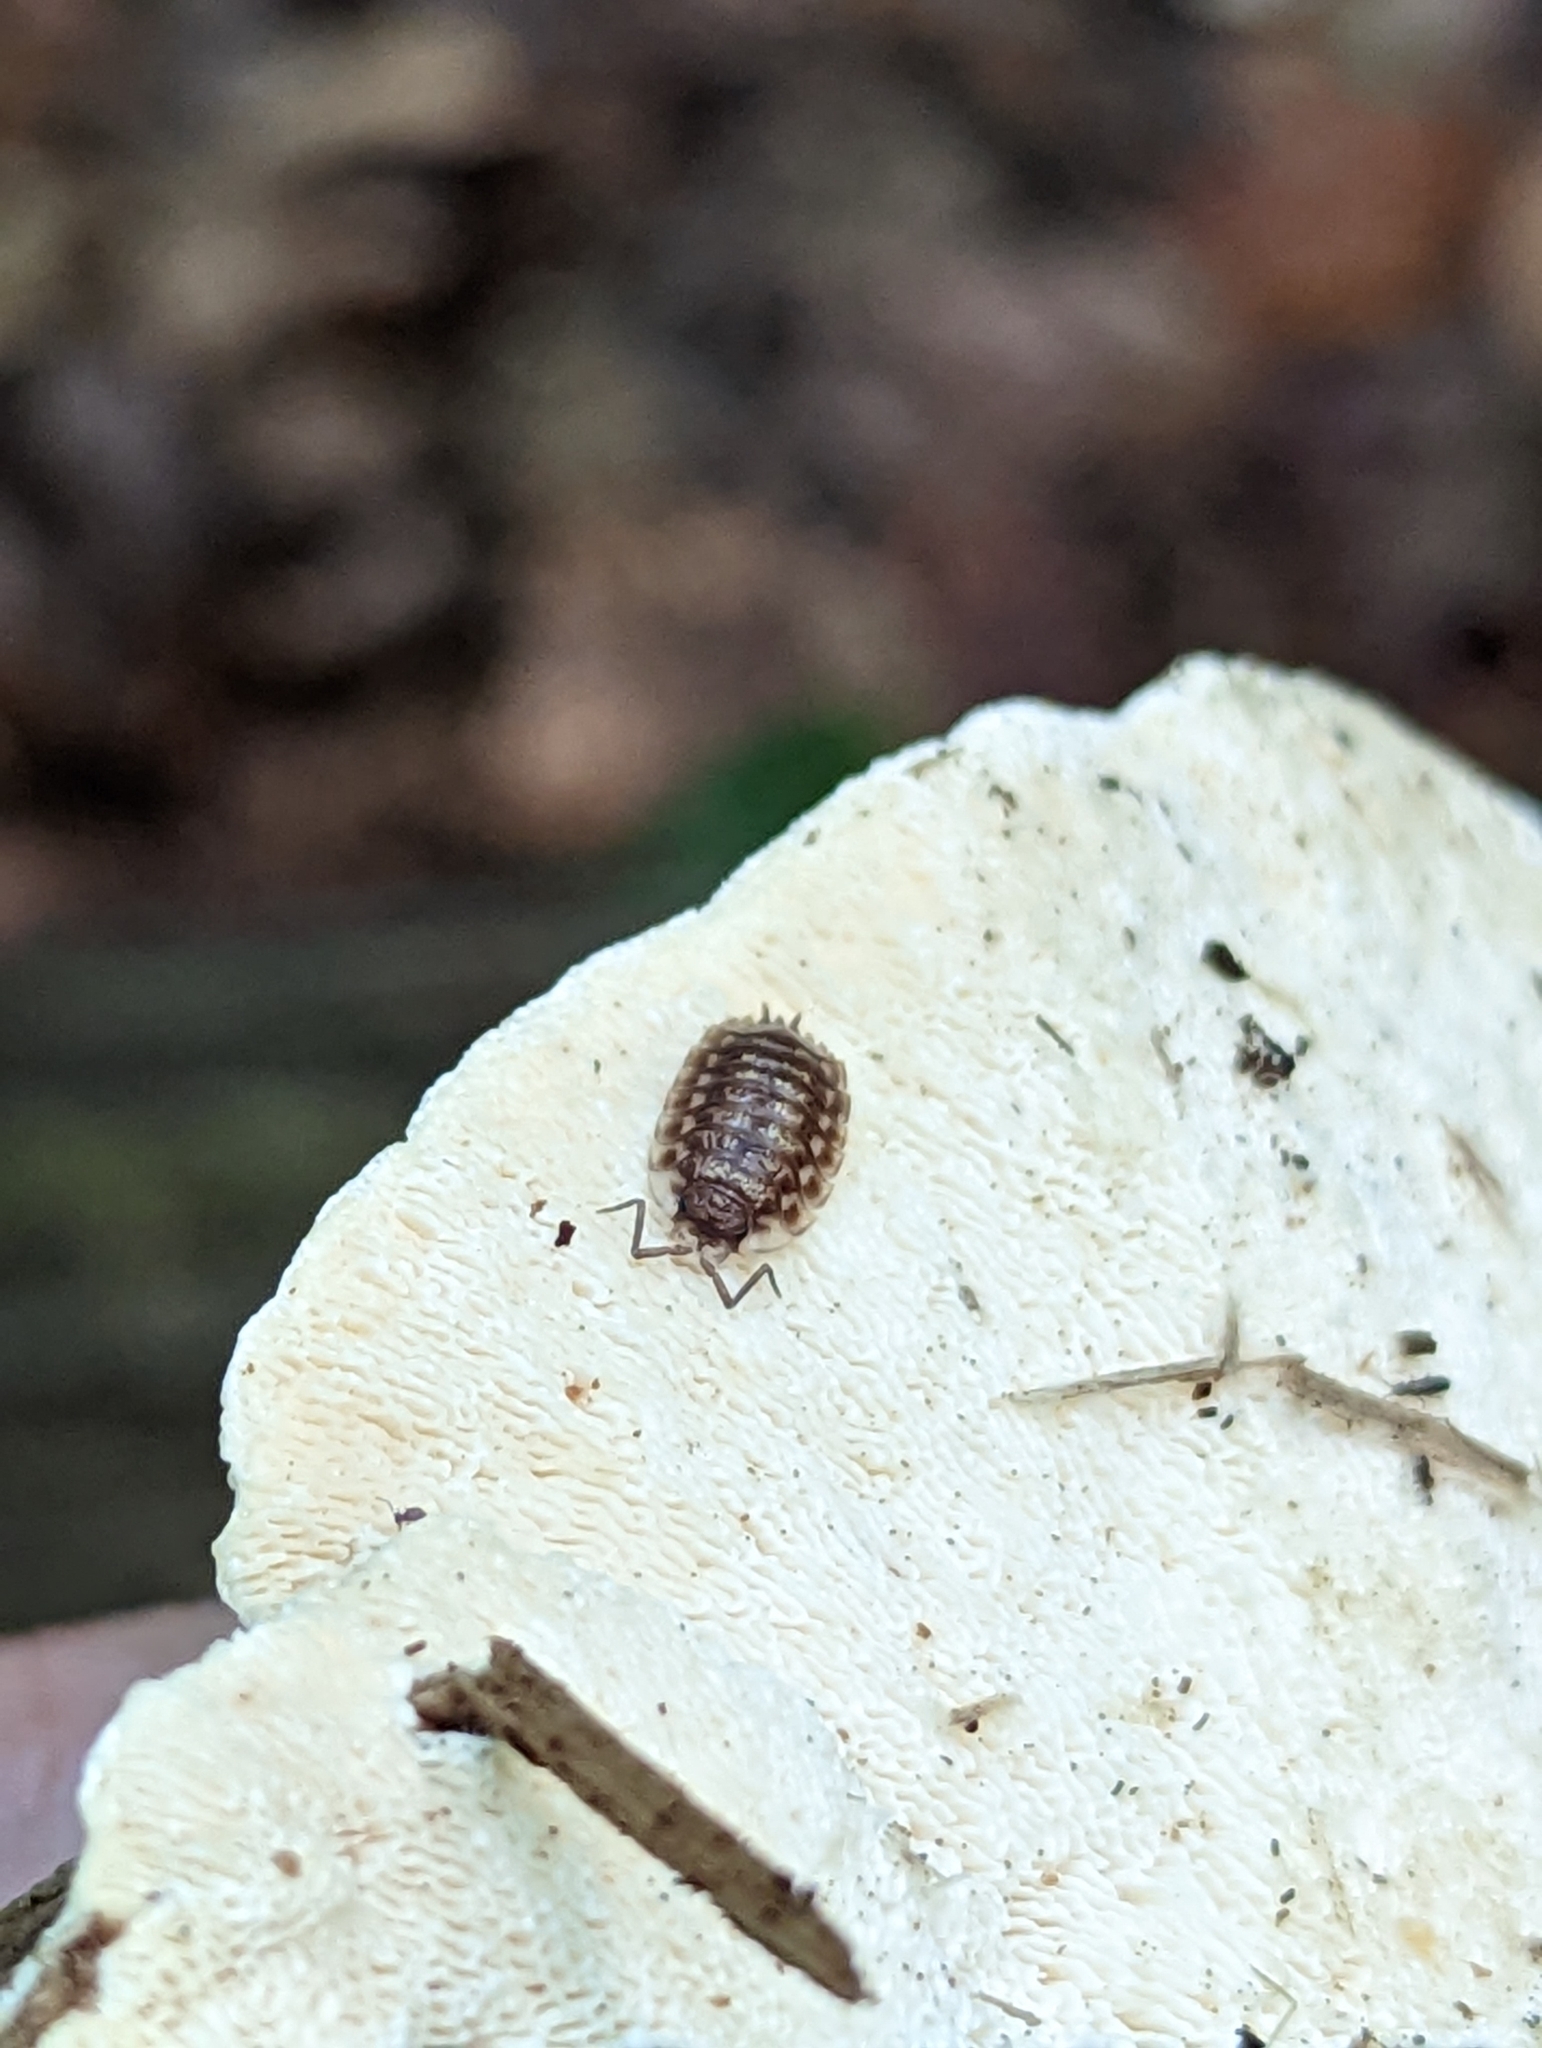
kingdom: Animalia
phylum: Arthropoda
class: Malacostraca
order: Isopoda
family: Oniscidae
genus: Oniscus
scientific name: Oniscus asellus
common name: Common shiny woodlouse
